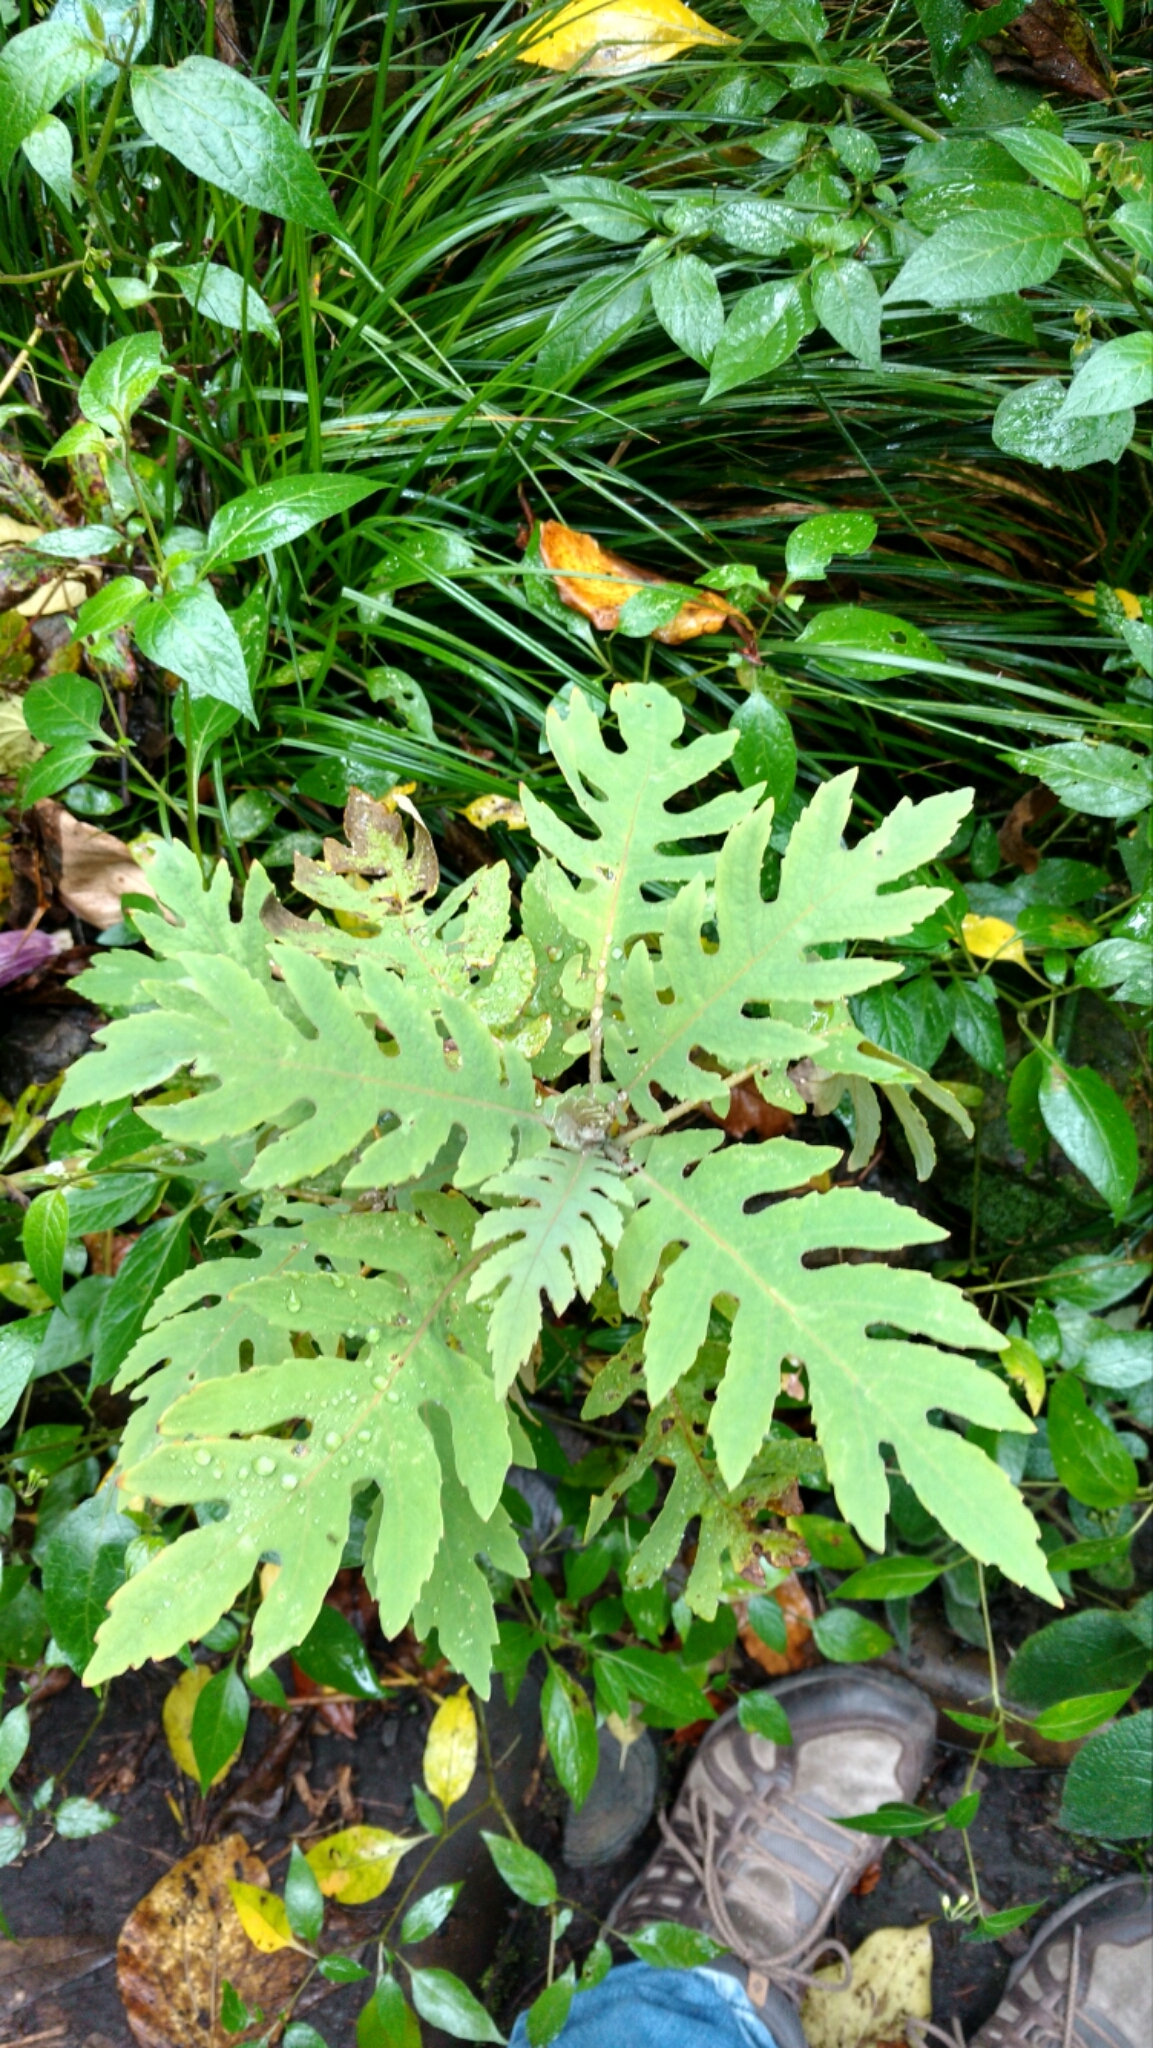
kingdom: Plantae
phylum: Tracheophyta
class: Magnoliopsida
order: Ranunculales
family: Papaveraceae
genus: Bocconia
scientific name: Bocconia frutescens
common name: Tree poppy
